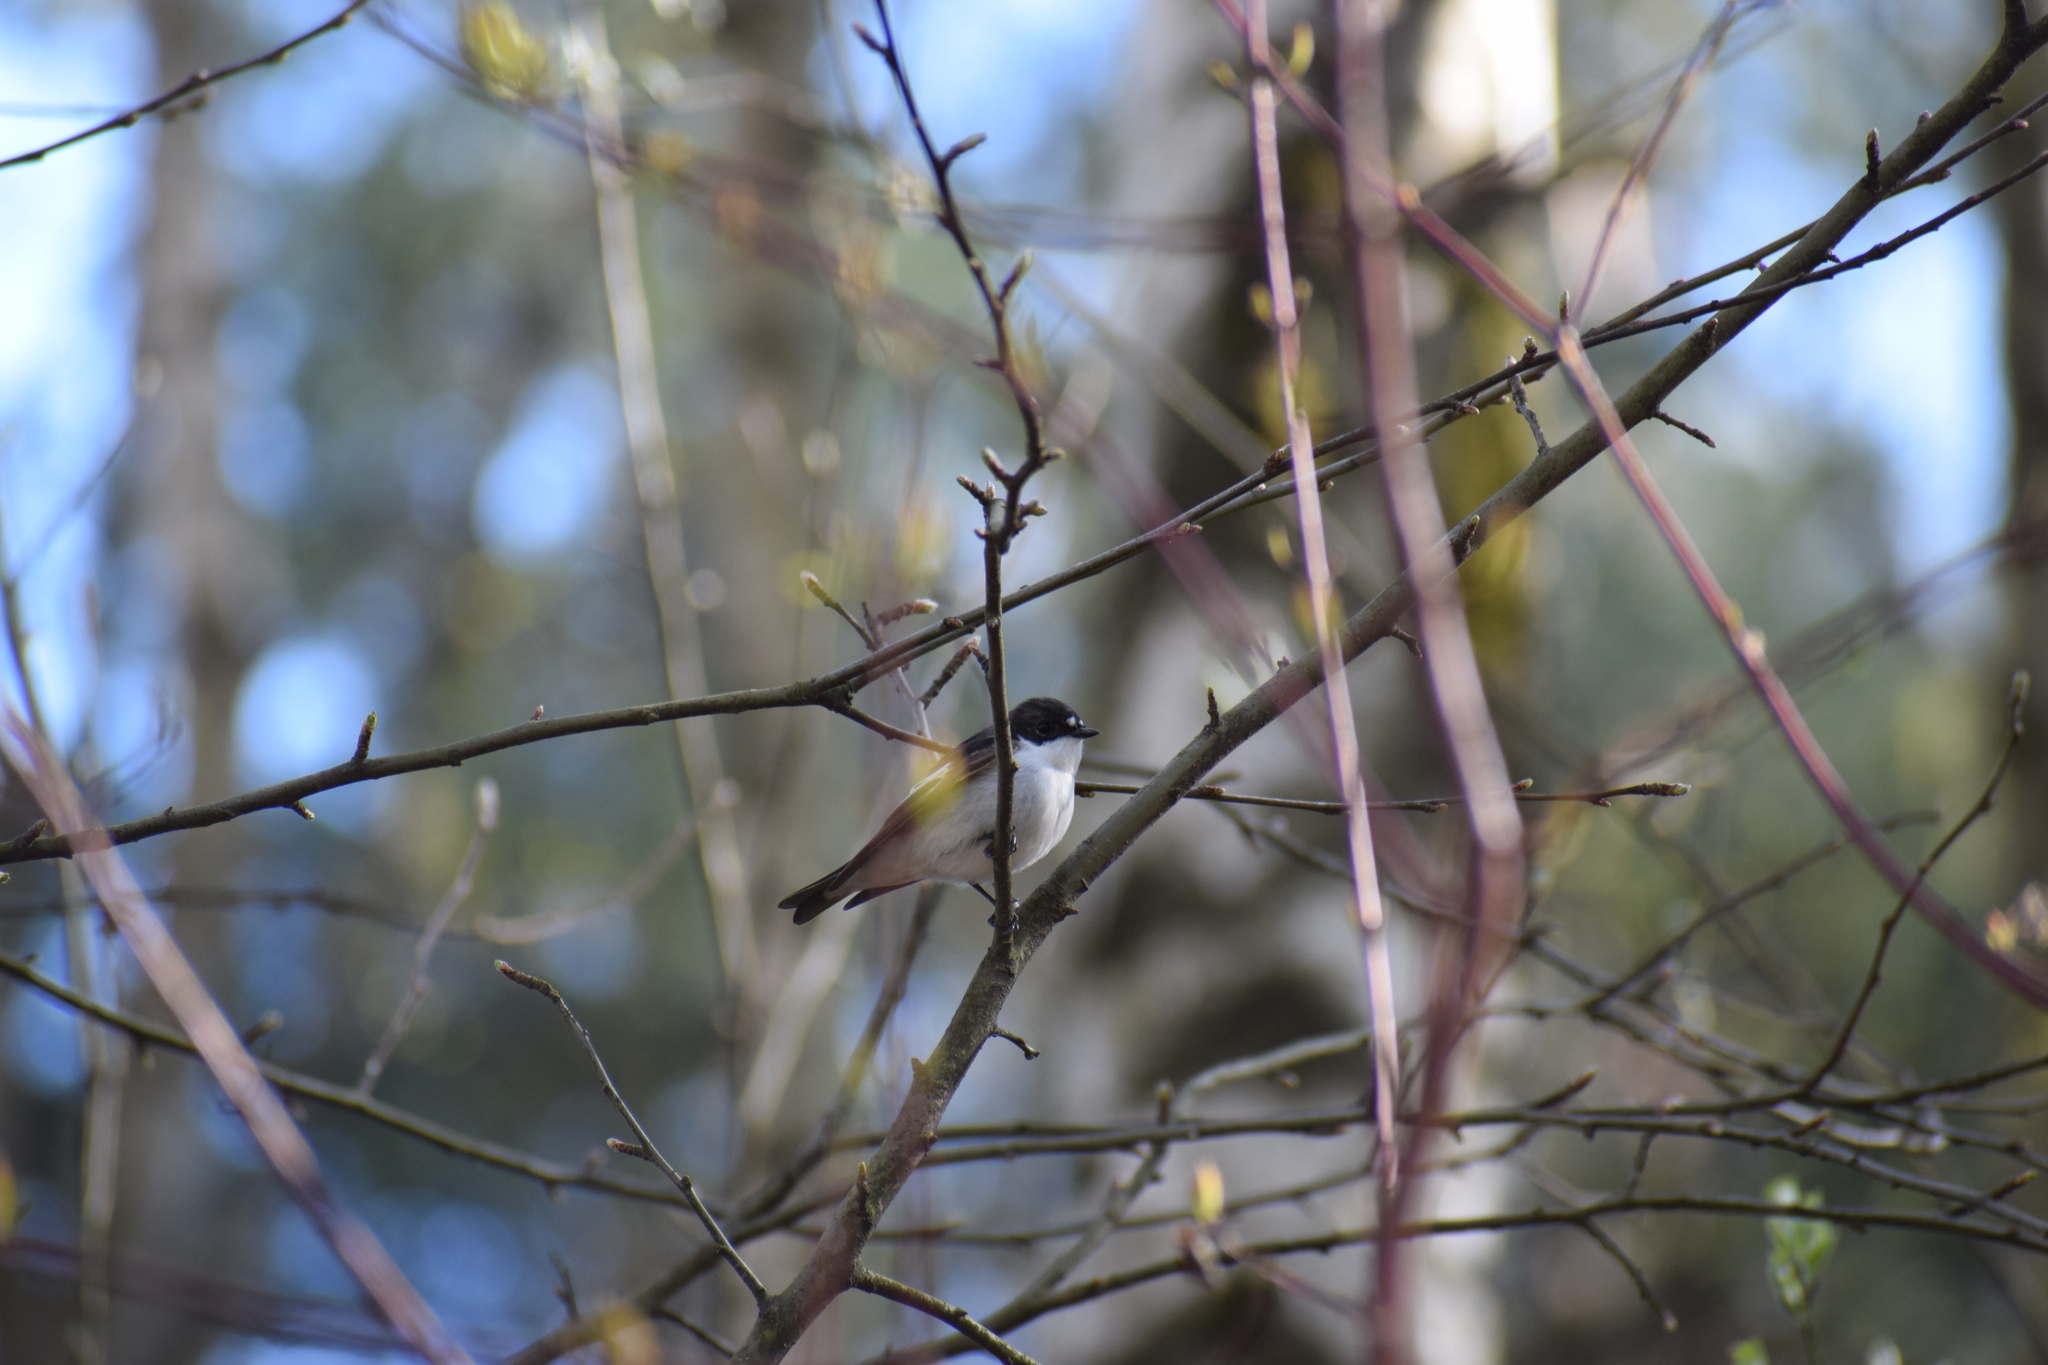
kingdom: Animalia
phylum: Chordata
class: Aves
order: Passeriformes
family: Muscicapidae
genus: Ficedula
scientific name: Ficedula hypoleuca
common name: European pied flycatcher
